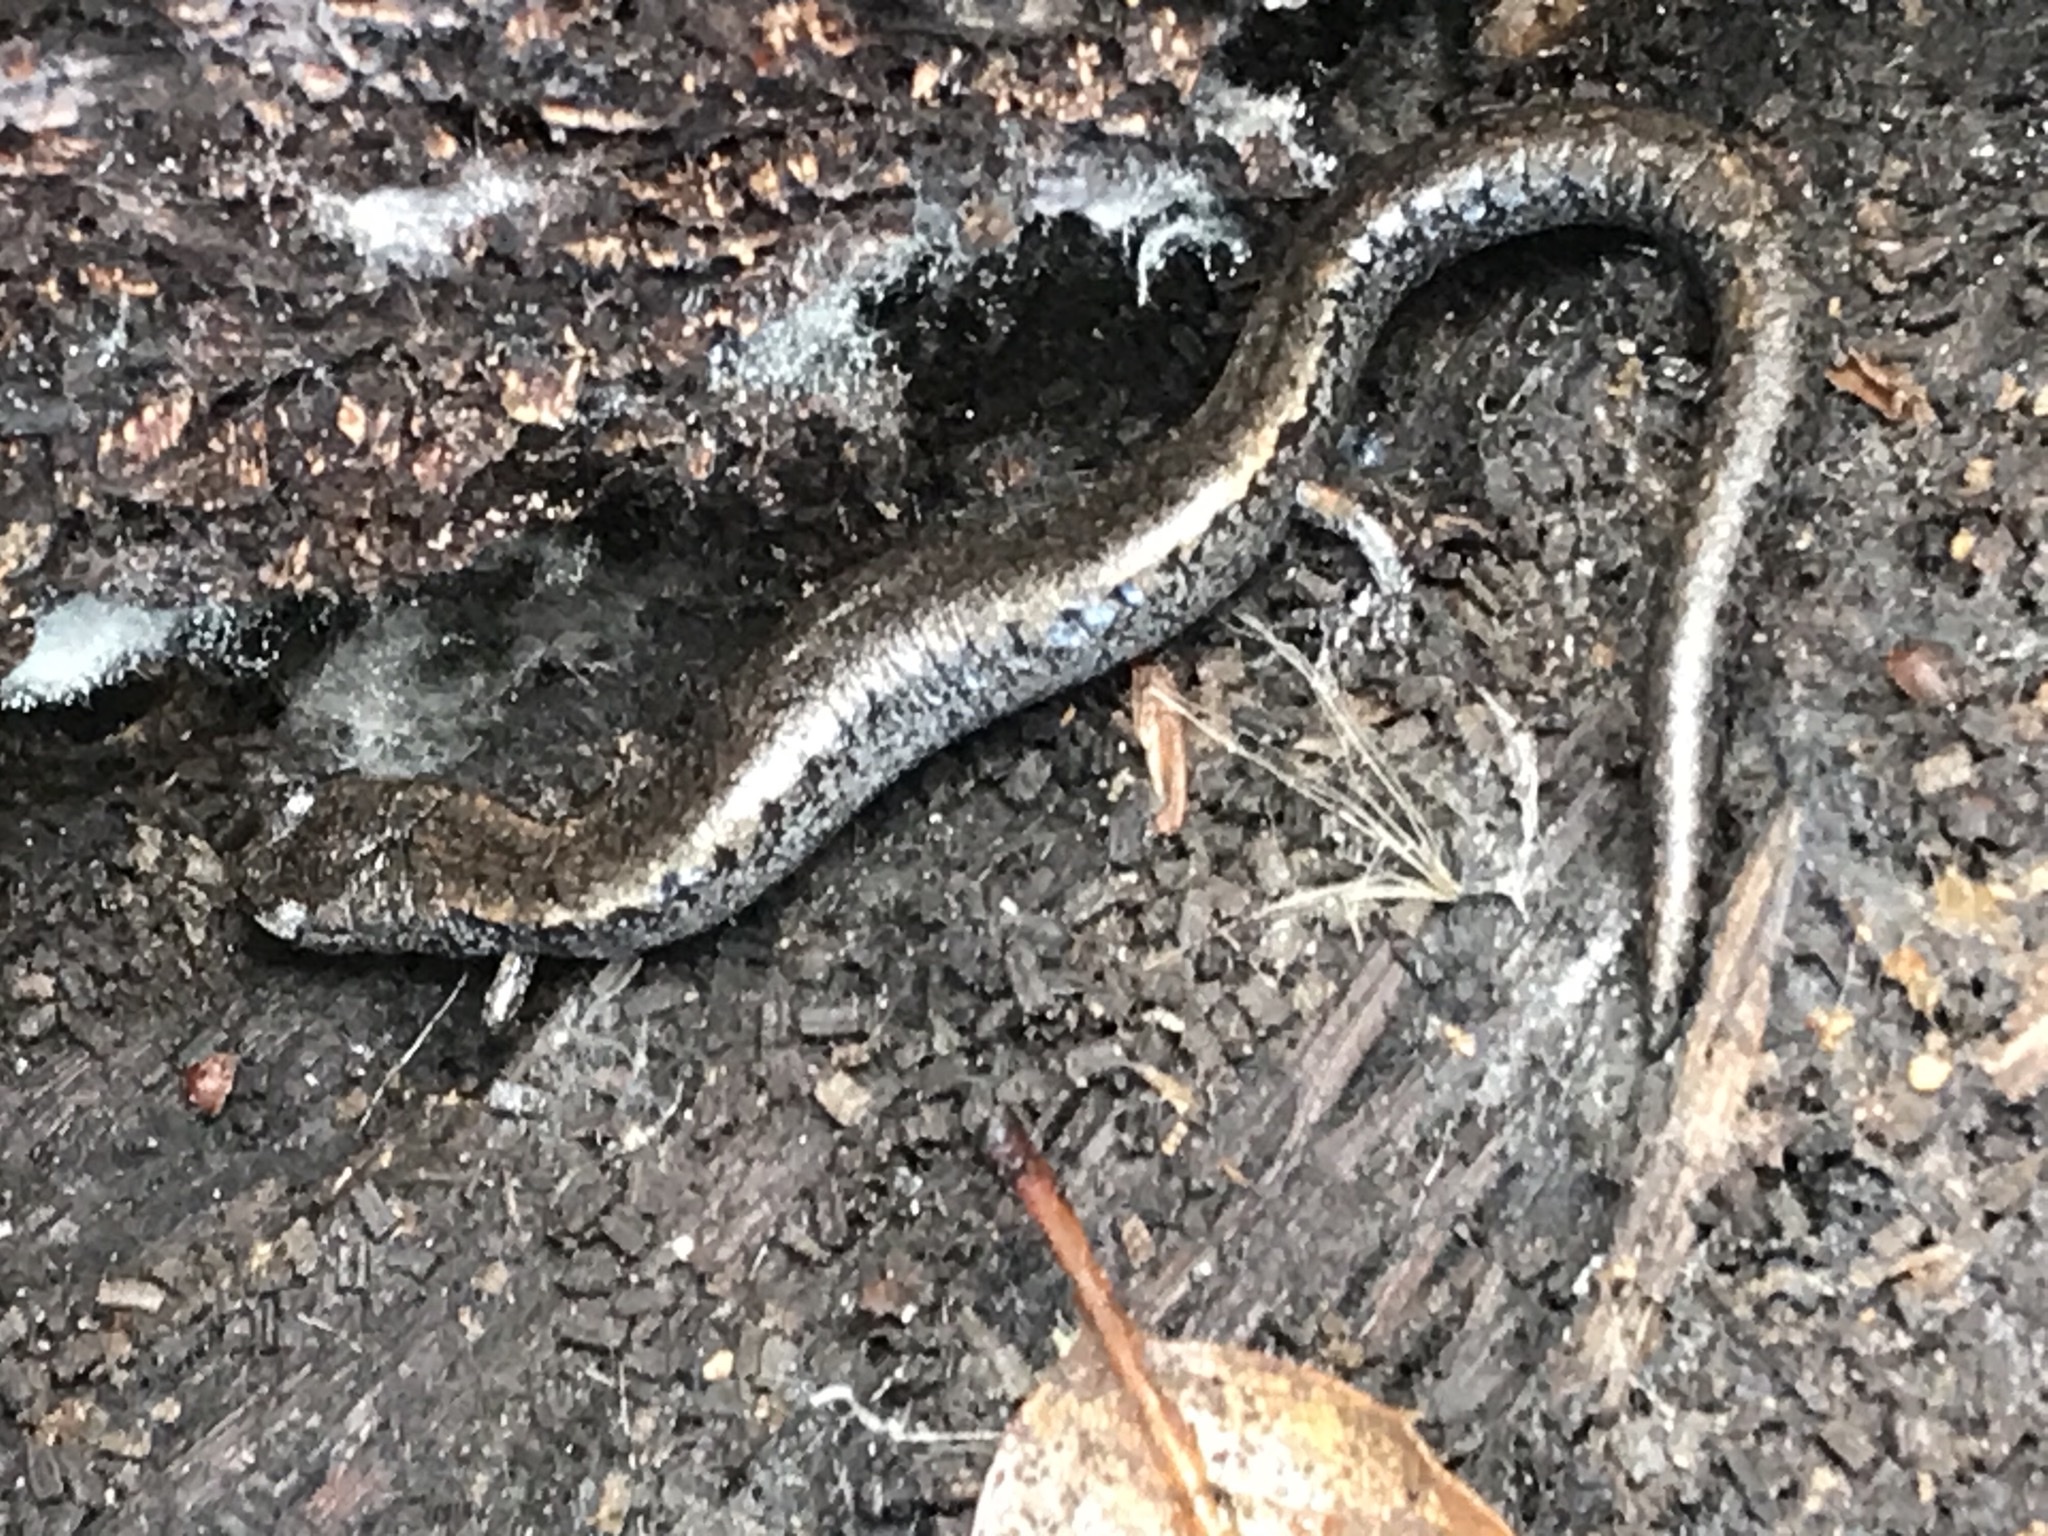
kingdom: Animalia
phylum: Chordata
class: Amphibia
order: Caudata
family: Plethodontidae
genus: Batrachoseps
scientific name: Batrachoseps attenuatus
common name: California slender salamander
